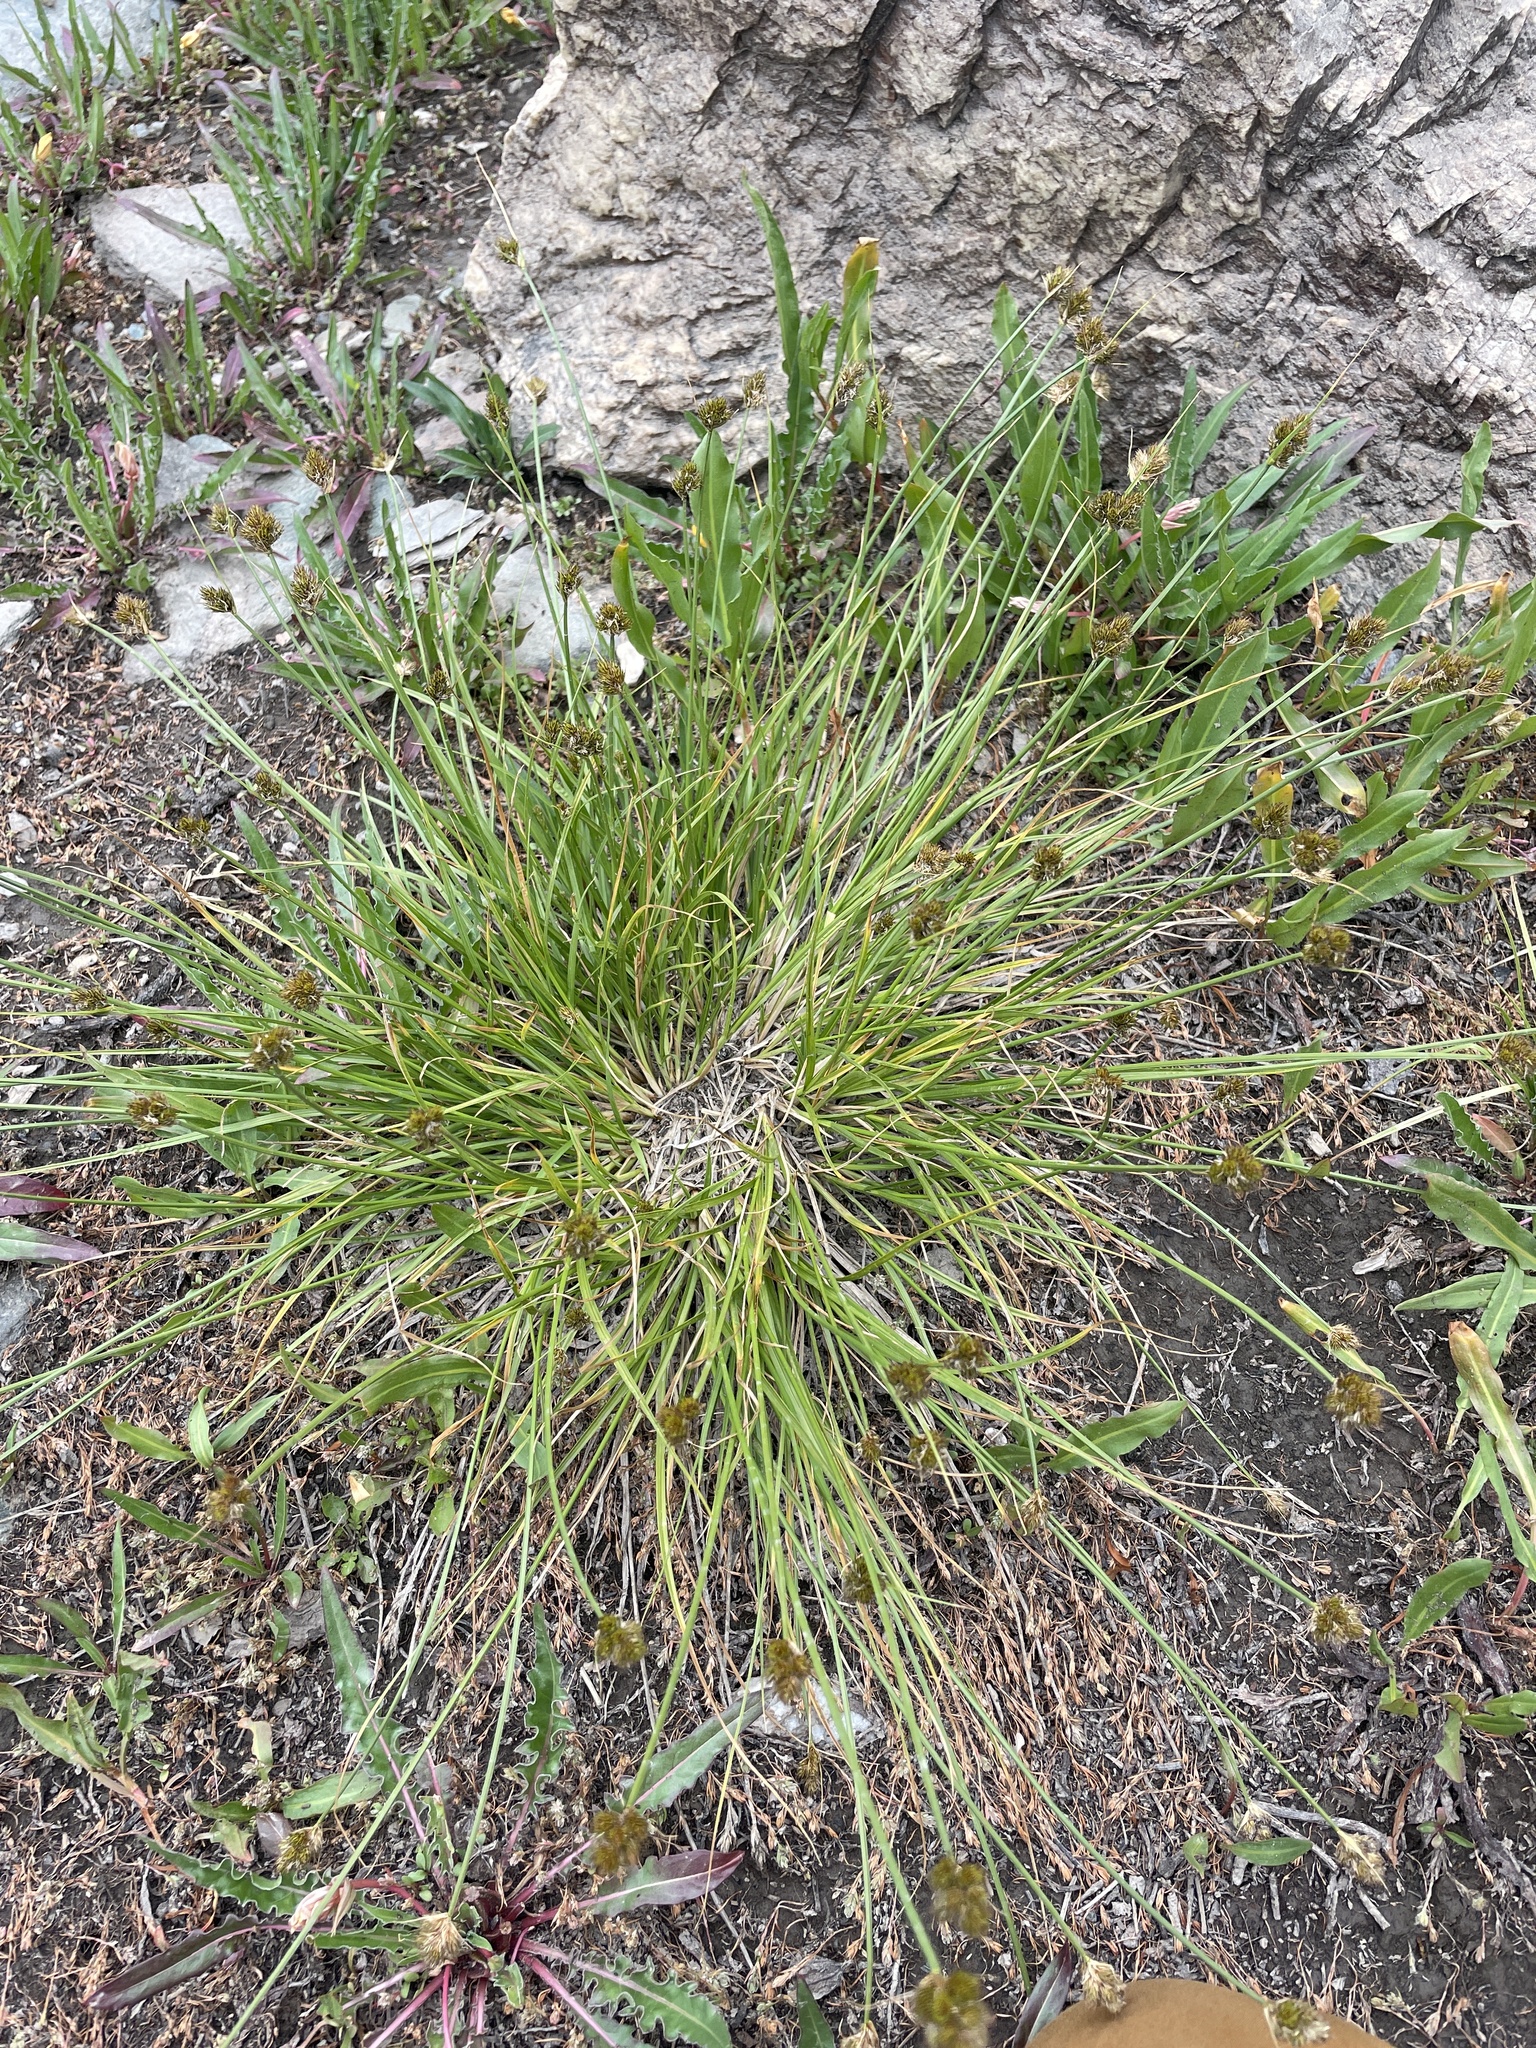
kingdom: Plantae
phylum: Tracheophyta
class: Liliopsida
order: Poales
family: Cyperaceae
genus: Carex
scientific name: Carex athrostachya
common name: Slenderbeak sedge
